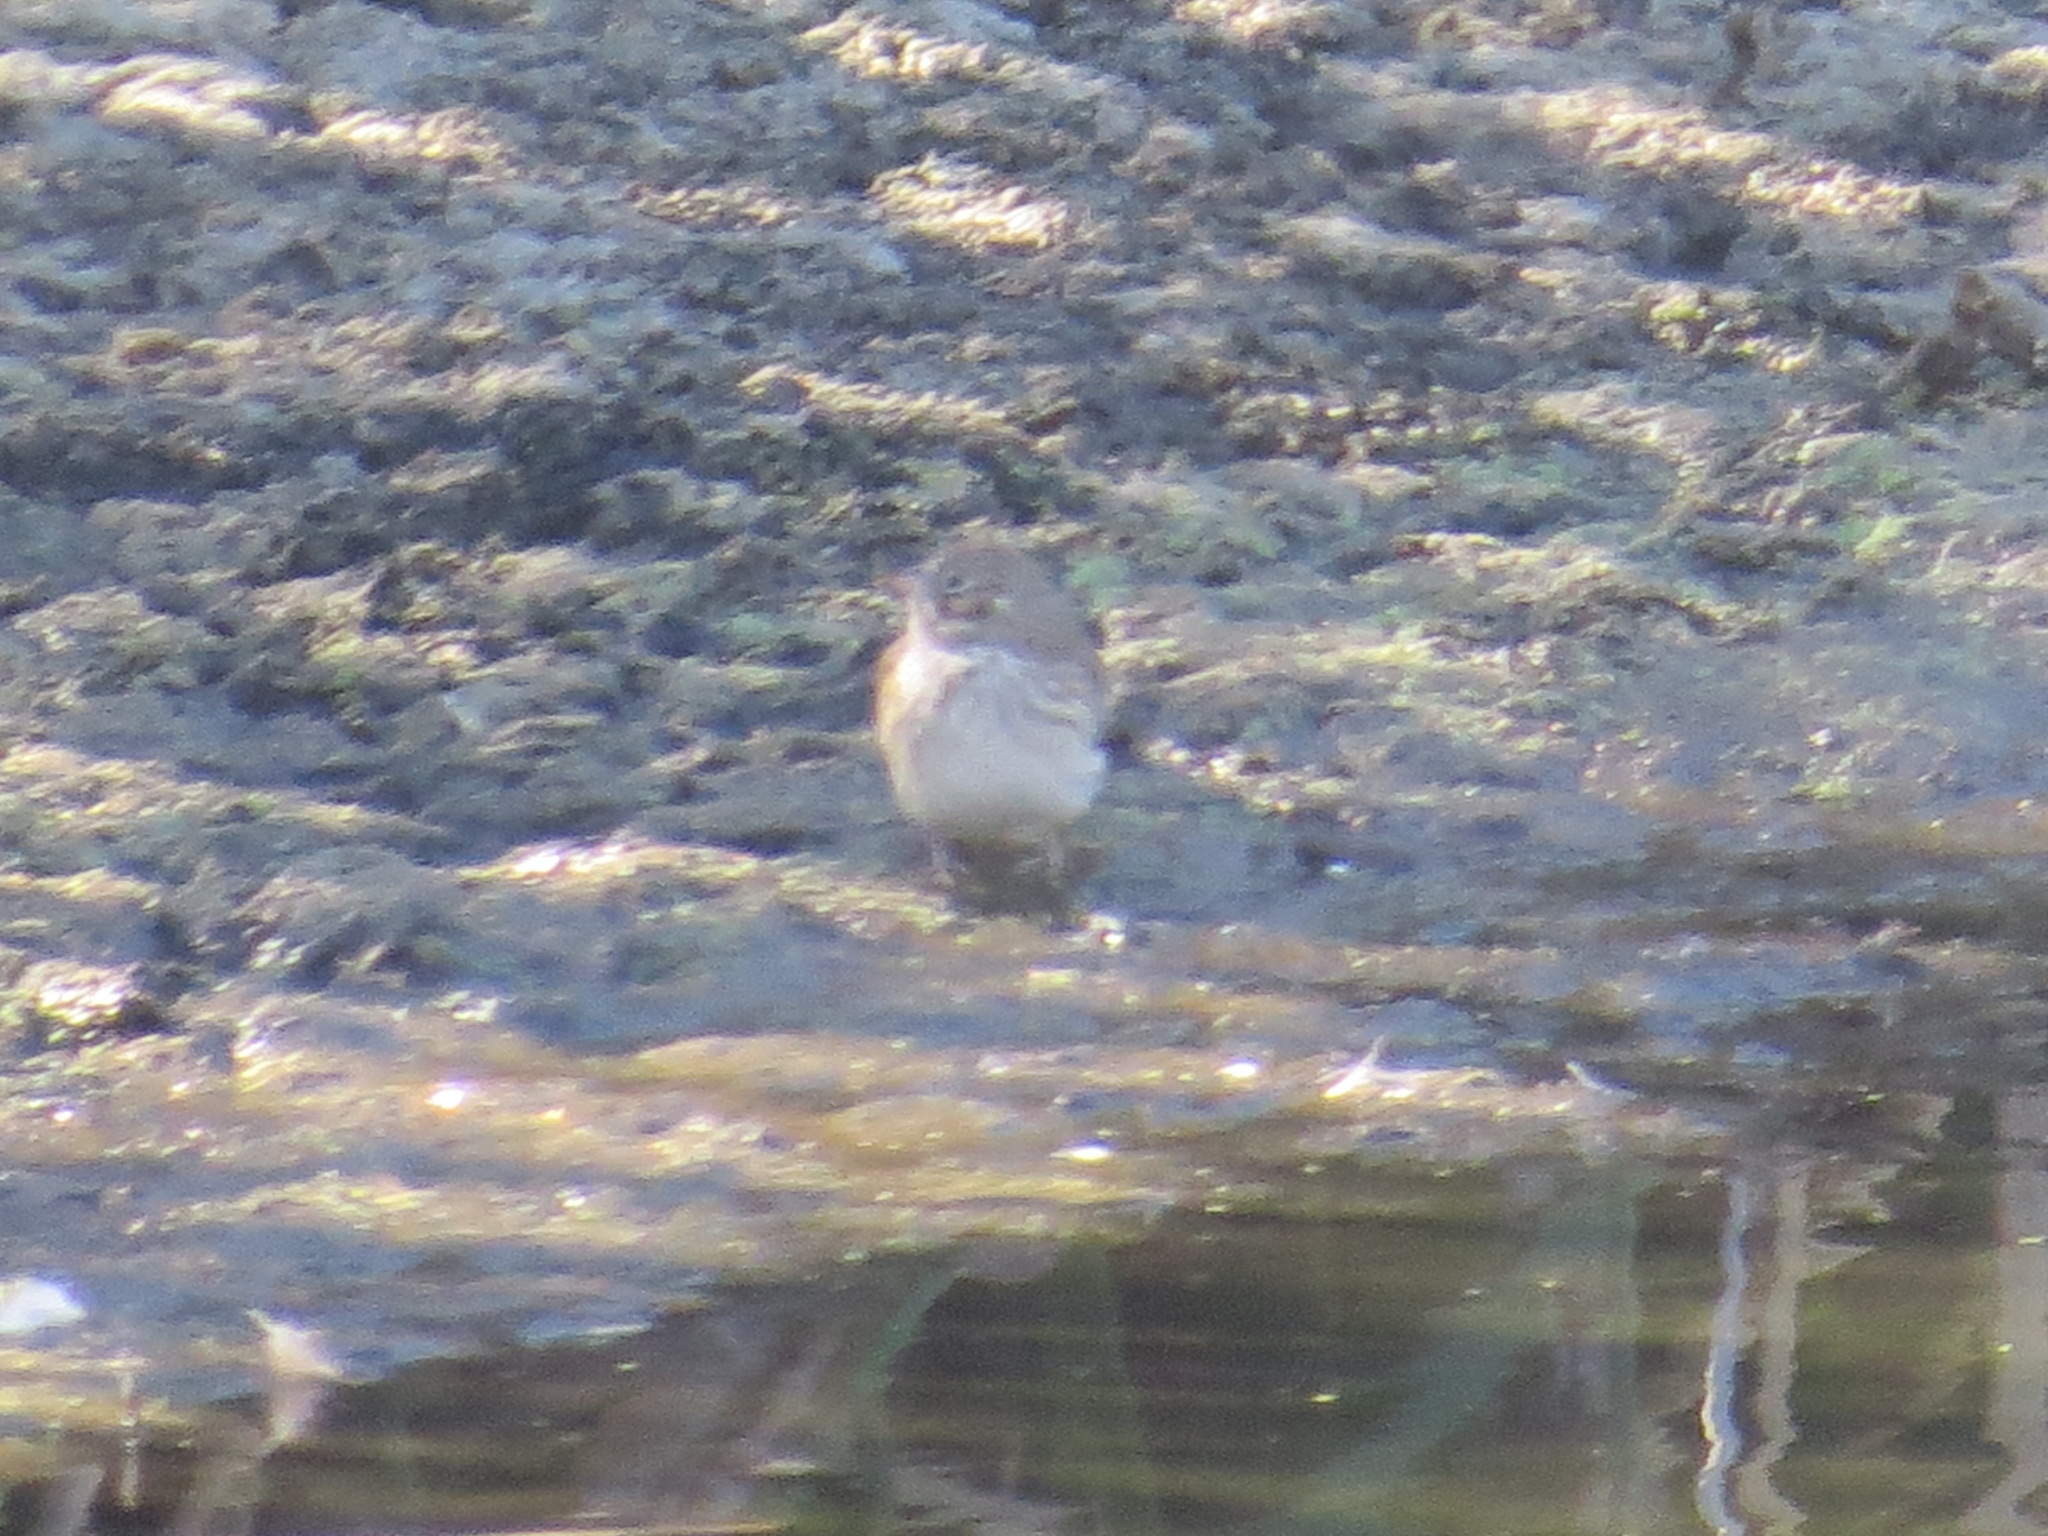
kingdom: Animalia
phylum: Chordata
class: Aves
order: Passeriformes
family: Passerellidae
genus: Pooecetes
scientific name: Pooecetes gramineus
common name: Vesper sparrow
